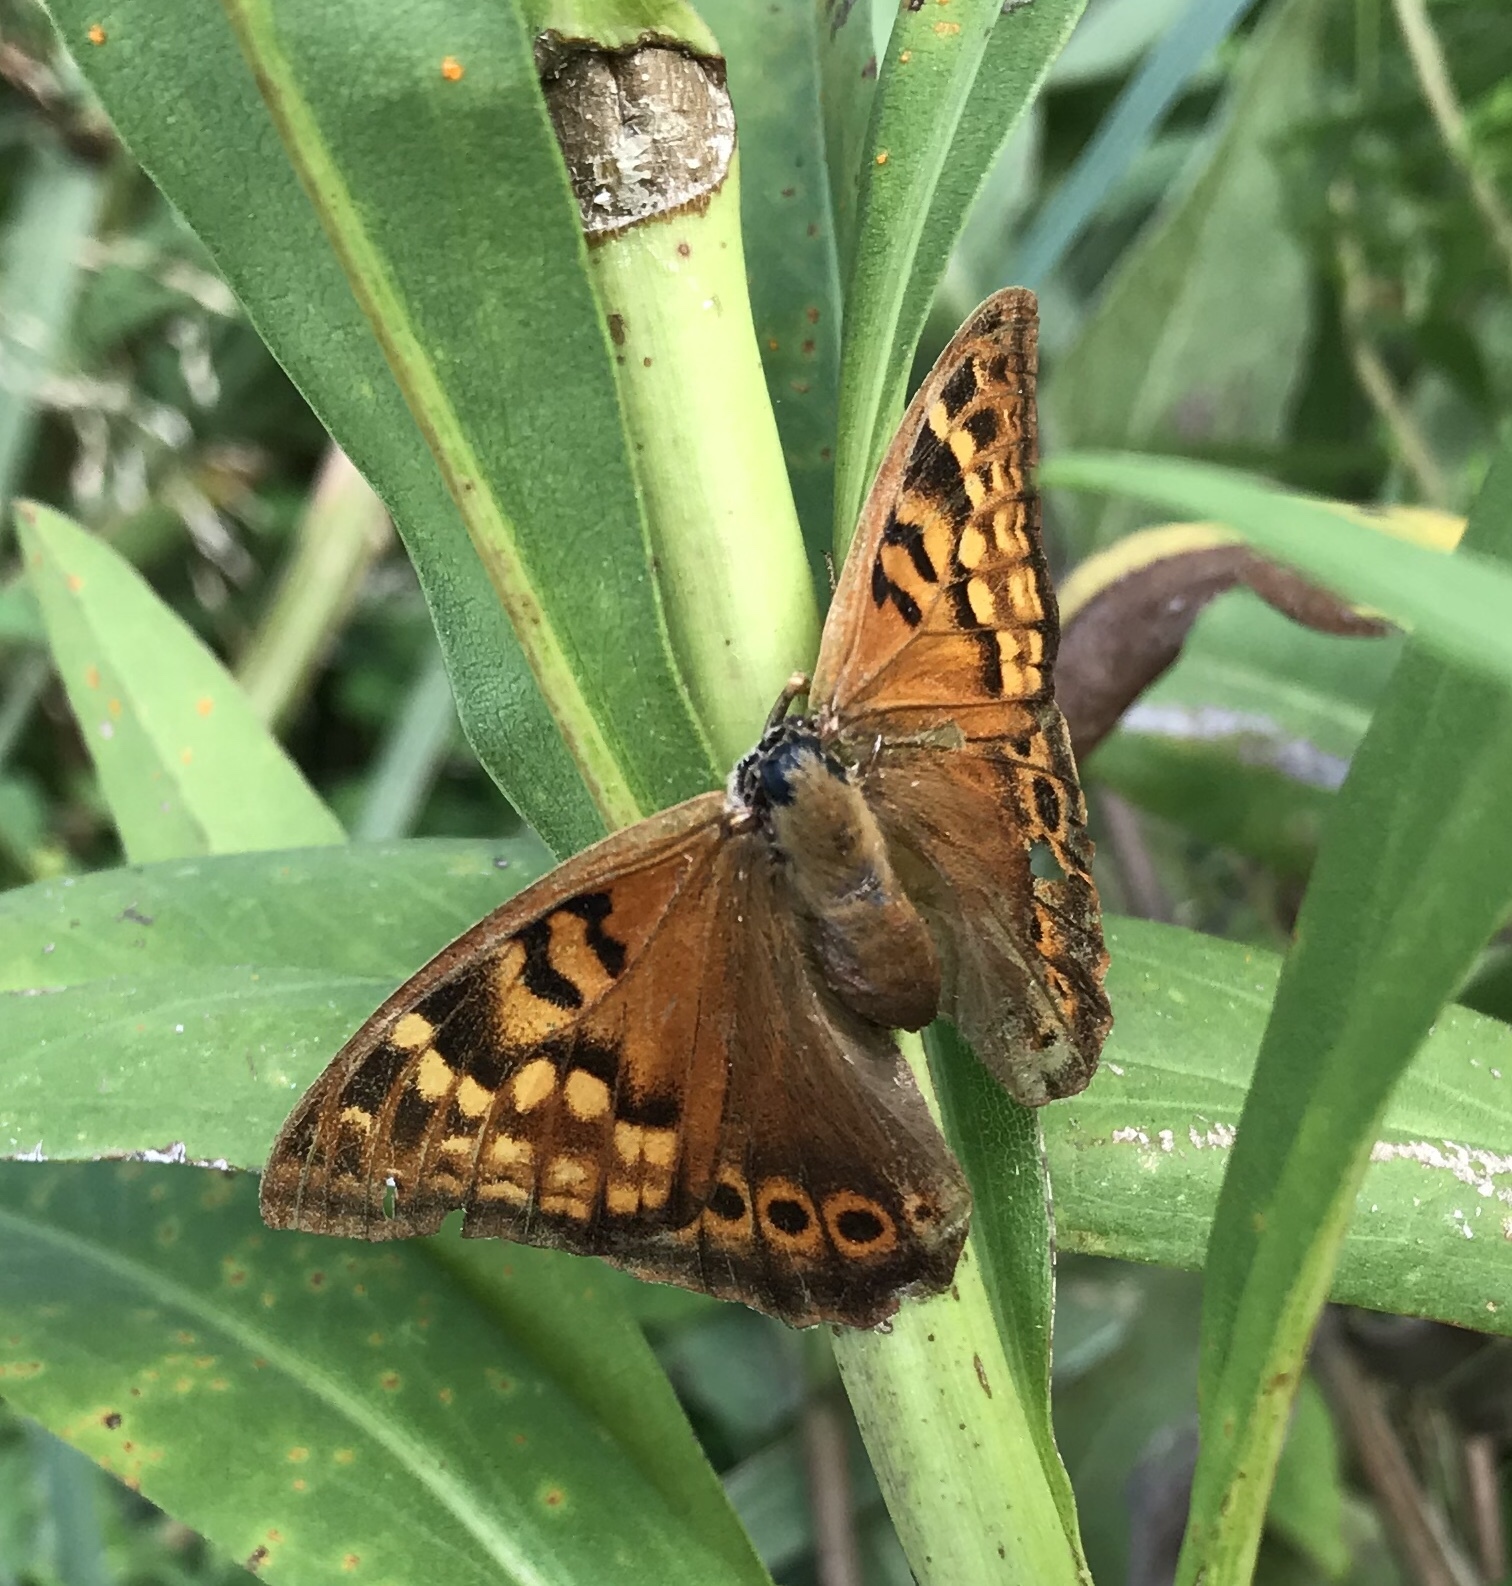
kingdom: Animalia
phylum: Arthropoda
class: Insecta
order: Lepidoptera
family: Nymphalidae
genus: Asterocampa
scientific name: Asterocampa clyton
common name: Tawny emperor
